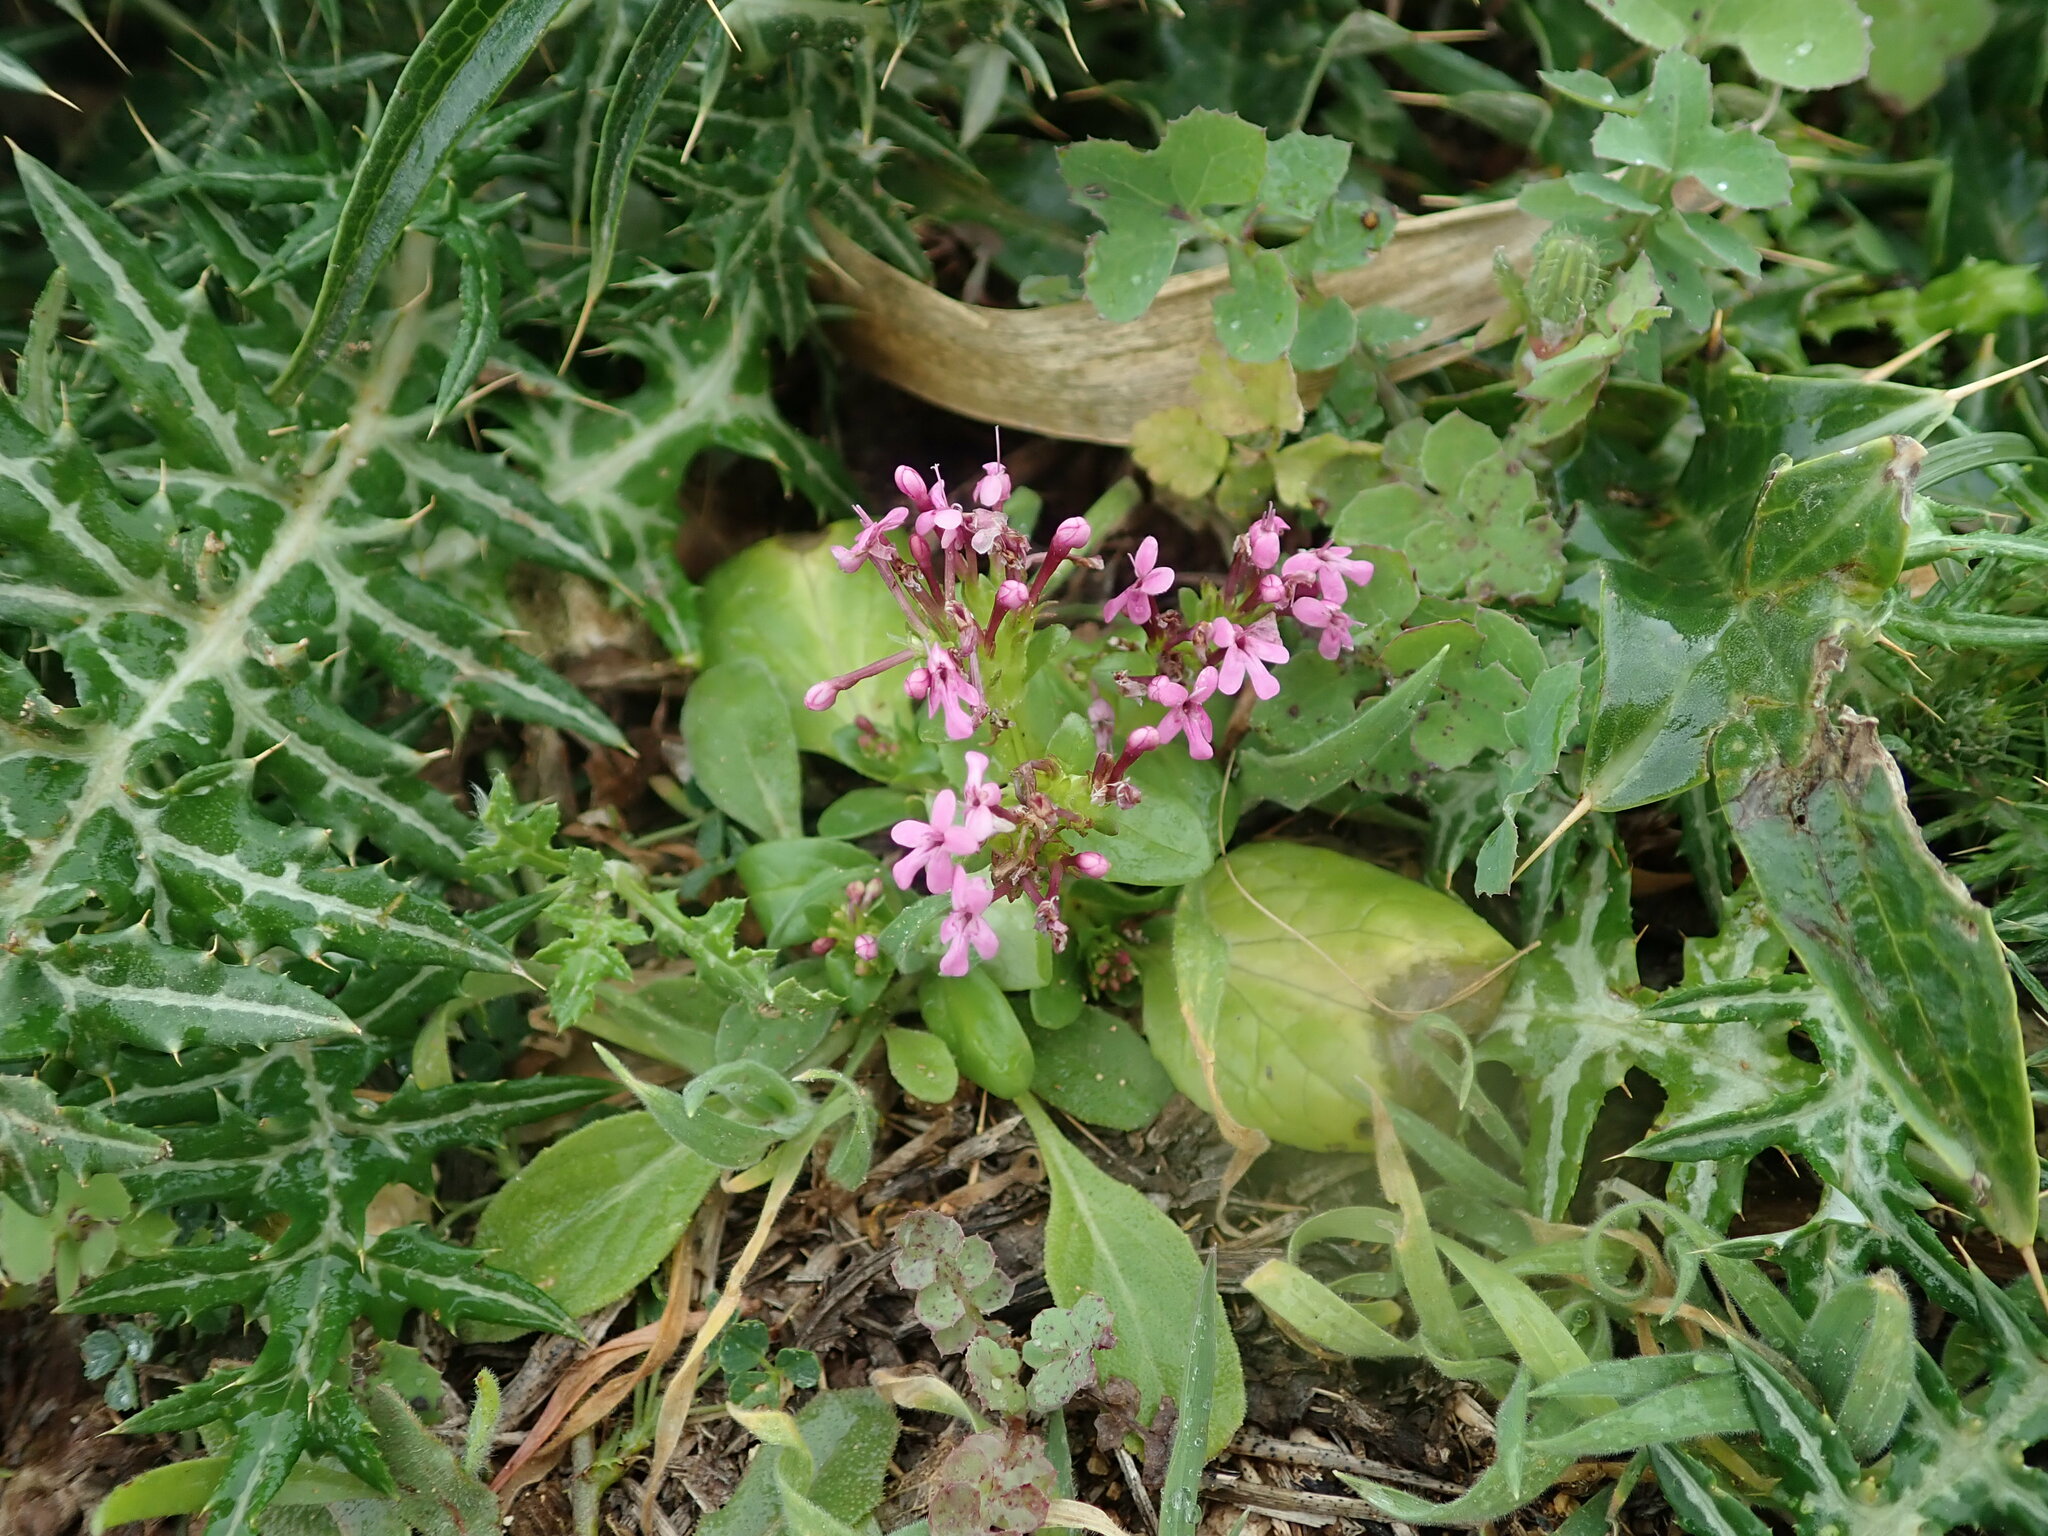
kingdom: Plantae
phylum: Tracheophyta
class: Magnoliopsida
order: Dipsacales
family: Caprifoliaceae
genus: Fedia
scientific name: Fedia graciliflora
